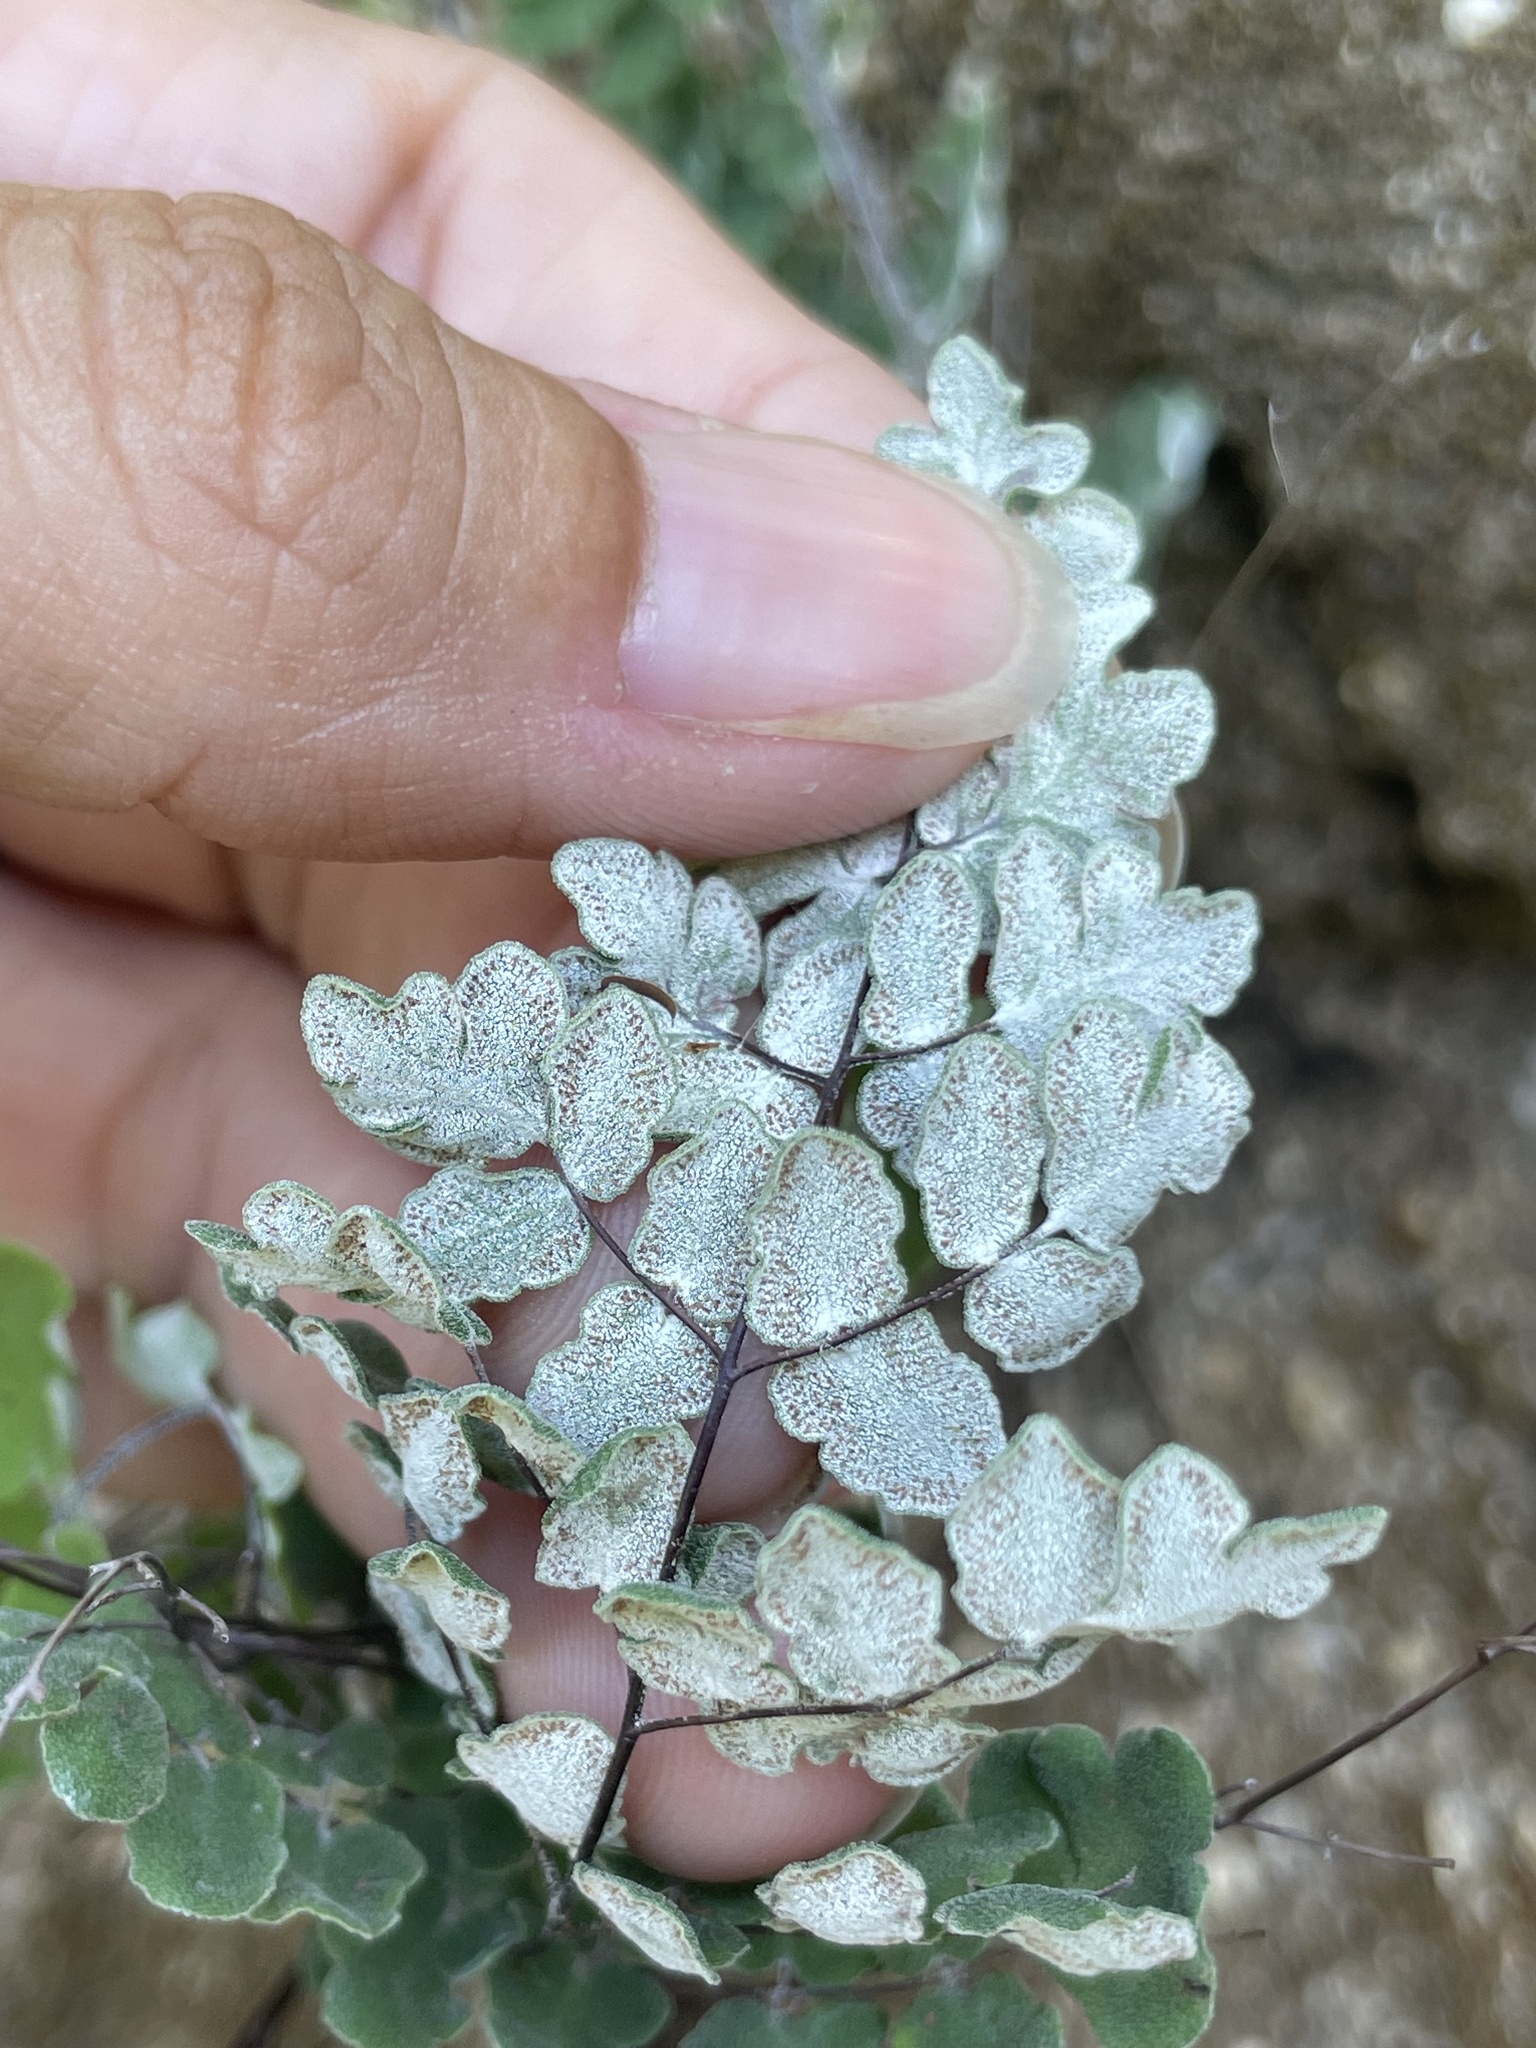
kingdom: Plantae
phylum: Tracheophyta
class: Polypodiopsida
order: Polypodiales
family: Pteridaceae
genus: Argyrochosma
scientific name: Argyrochosma peninsularis
